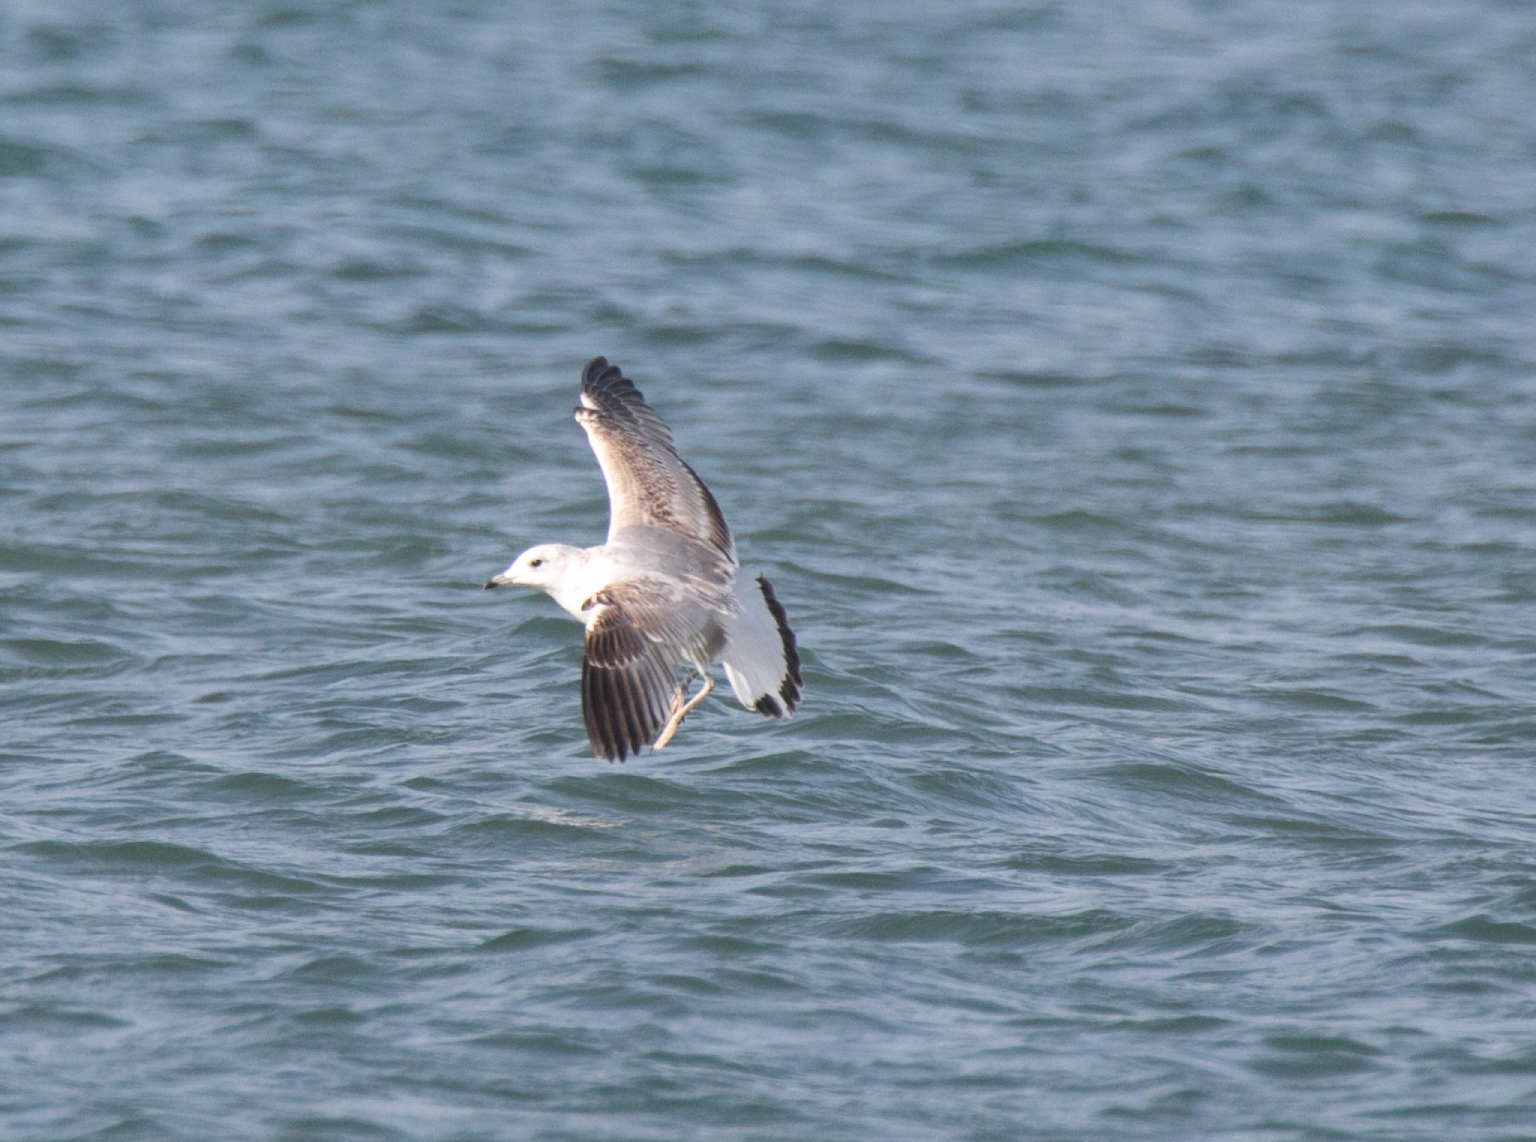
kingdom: Animalia
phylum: Chordata
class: Aves
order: Charadriiformes
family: Laridae
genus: Larus
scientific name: Larus canus
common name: Mew gull
